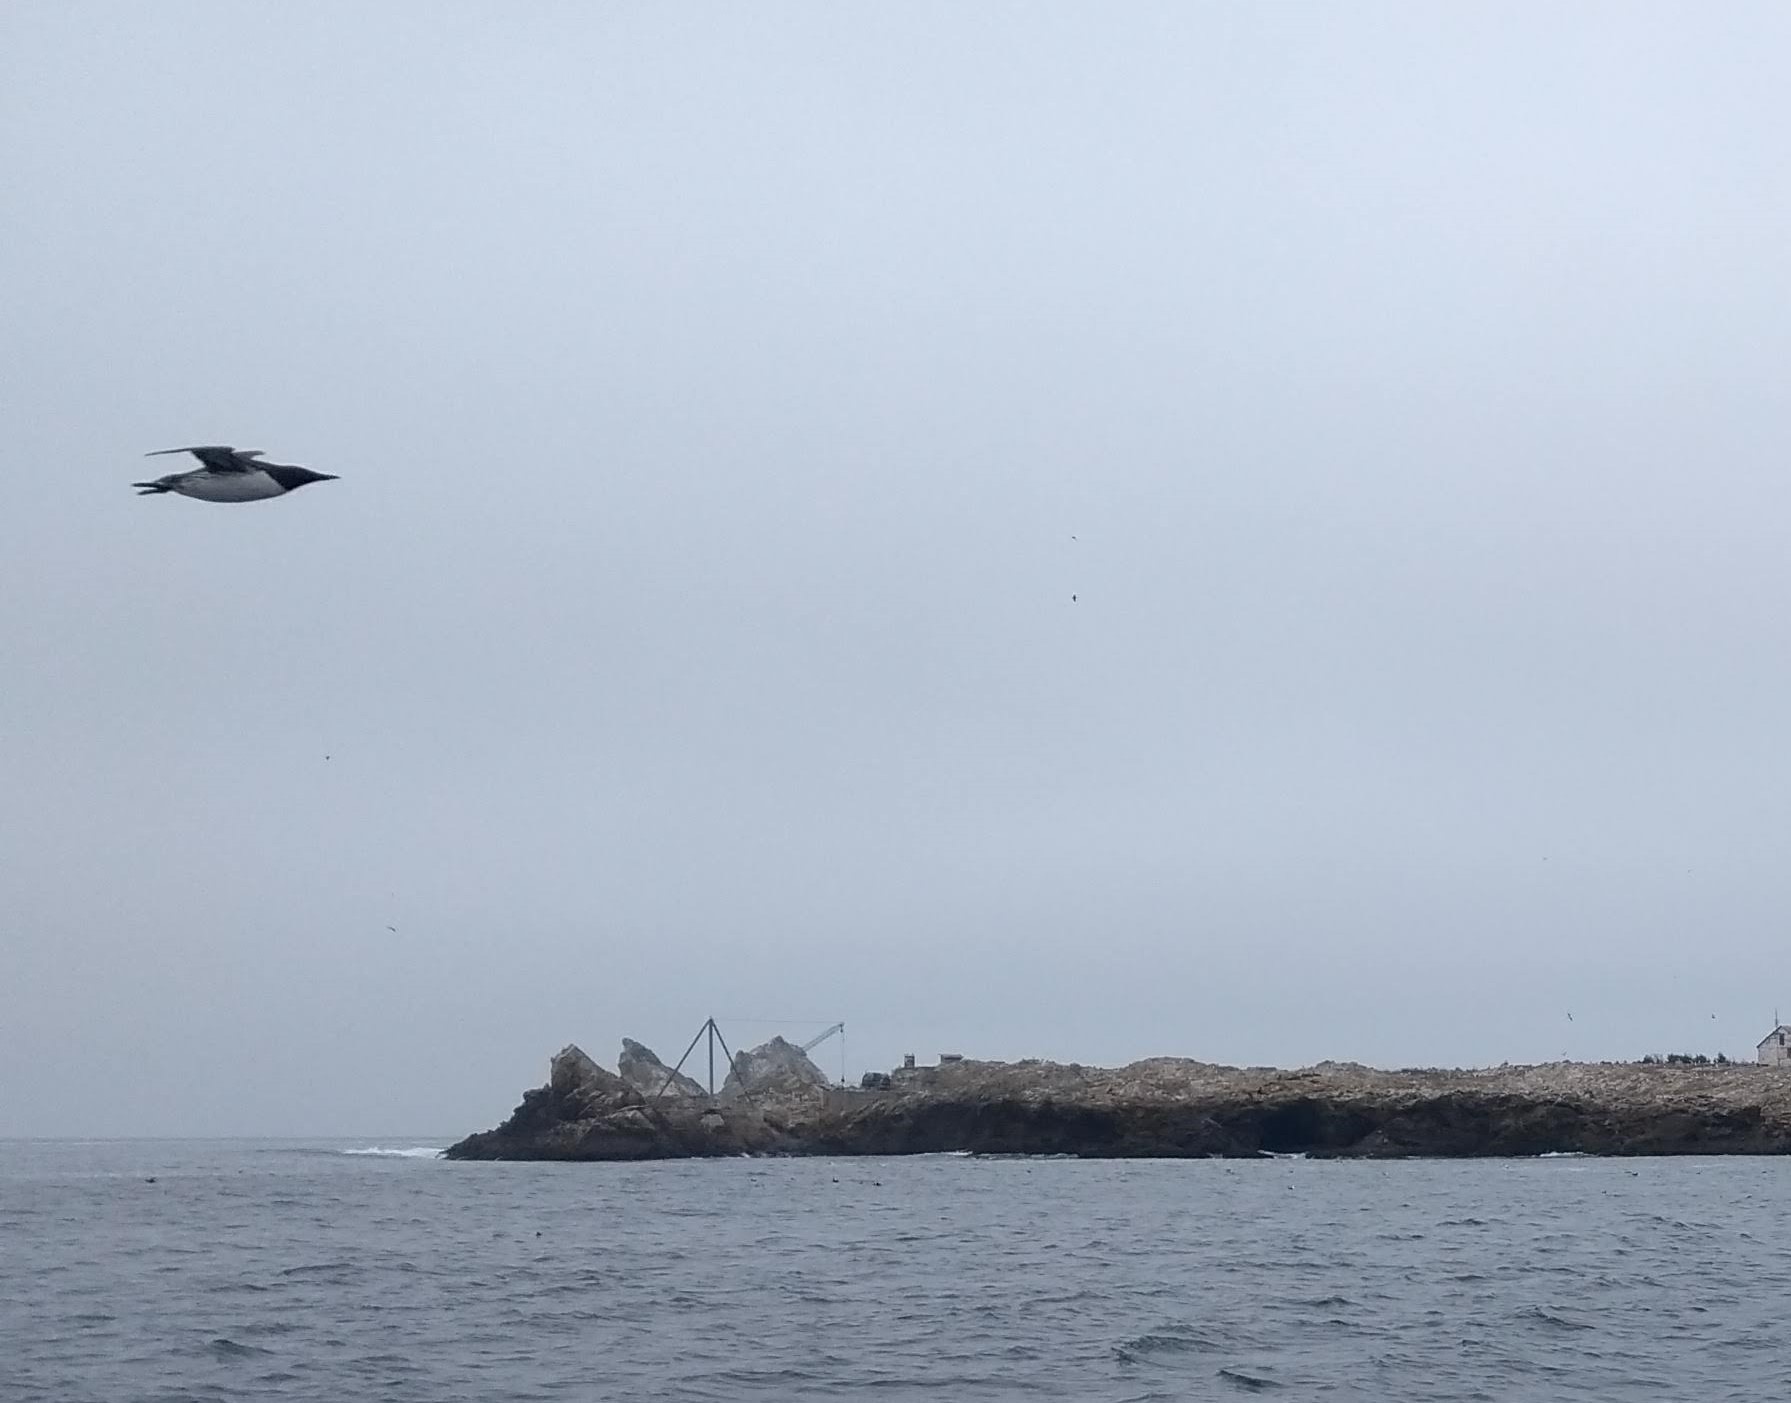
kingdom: Animalia
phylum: Chordata
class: Aves
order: Charadriiformes
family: Alcidae
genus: Uria
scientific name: Uria aalge
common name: Common murre
